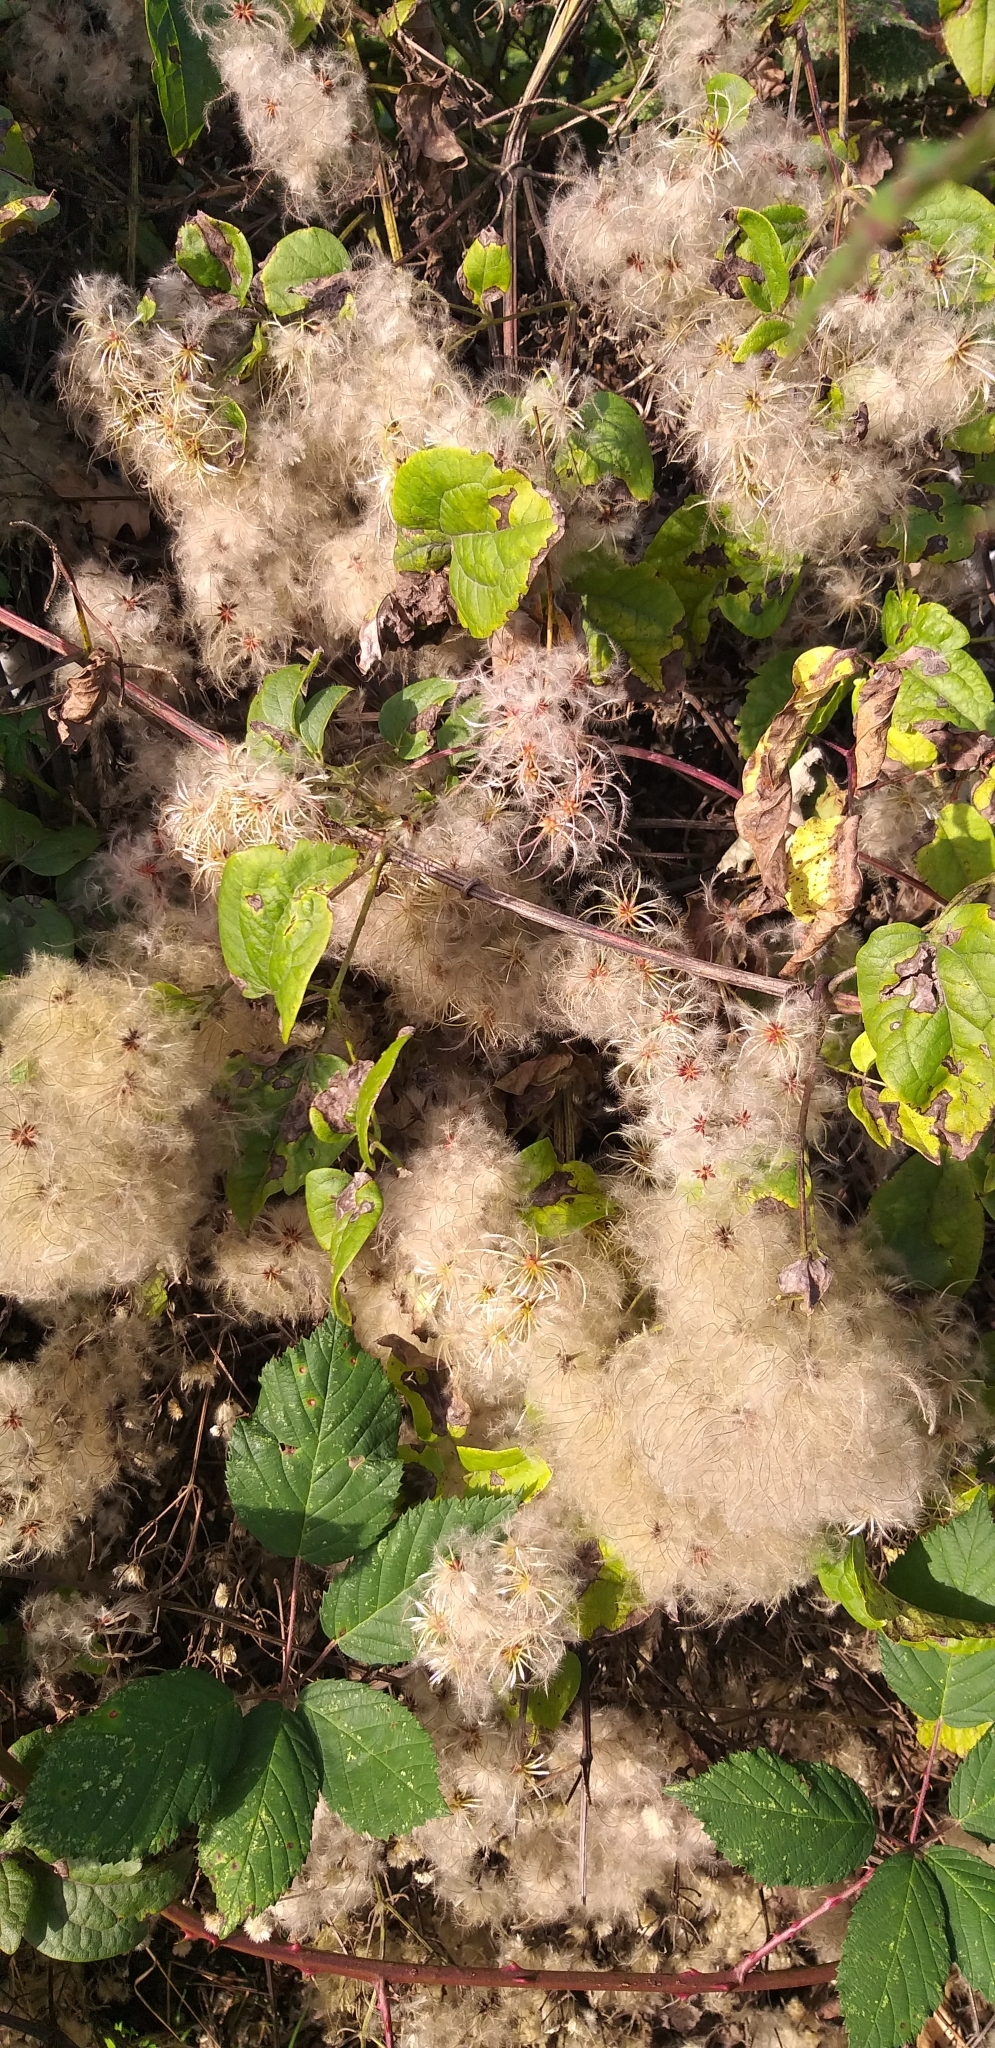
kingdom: Plantae
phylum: Tracheophyta
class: Magnoliopsida
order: Ranunculales
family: Ranunculaceae
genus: Clematis
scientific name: Clematis vitalba
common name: Evergreen clematis
